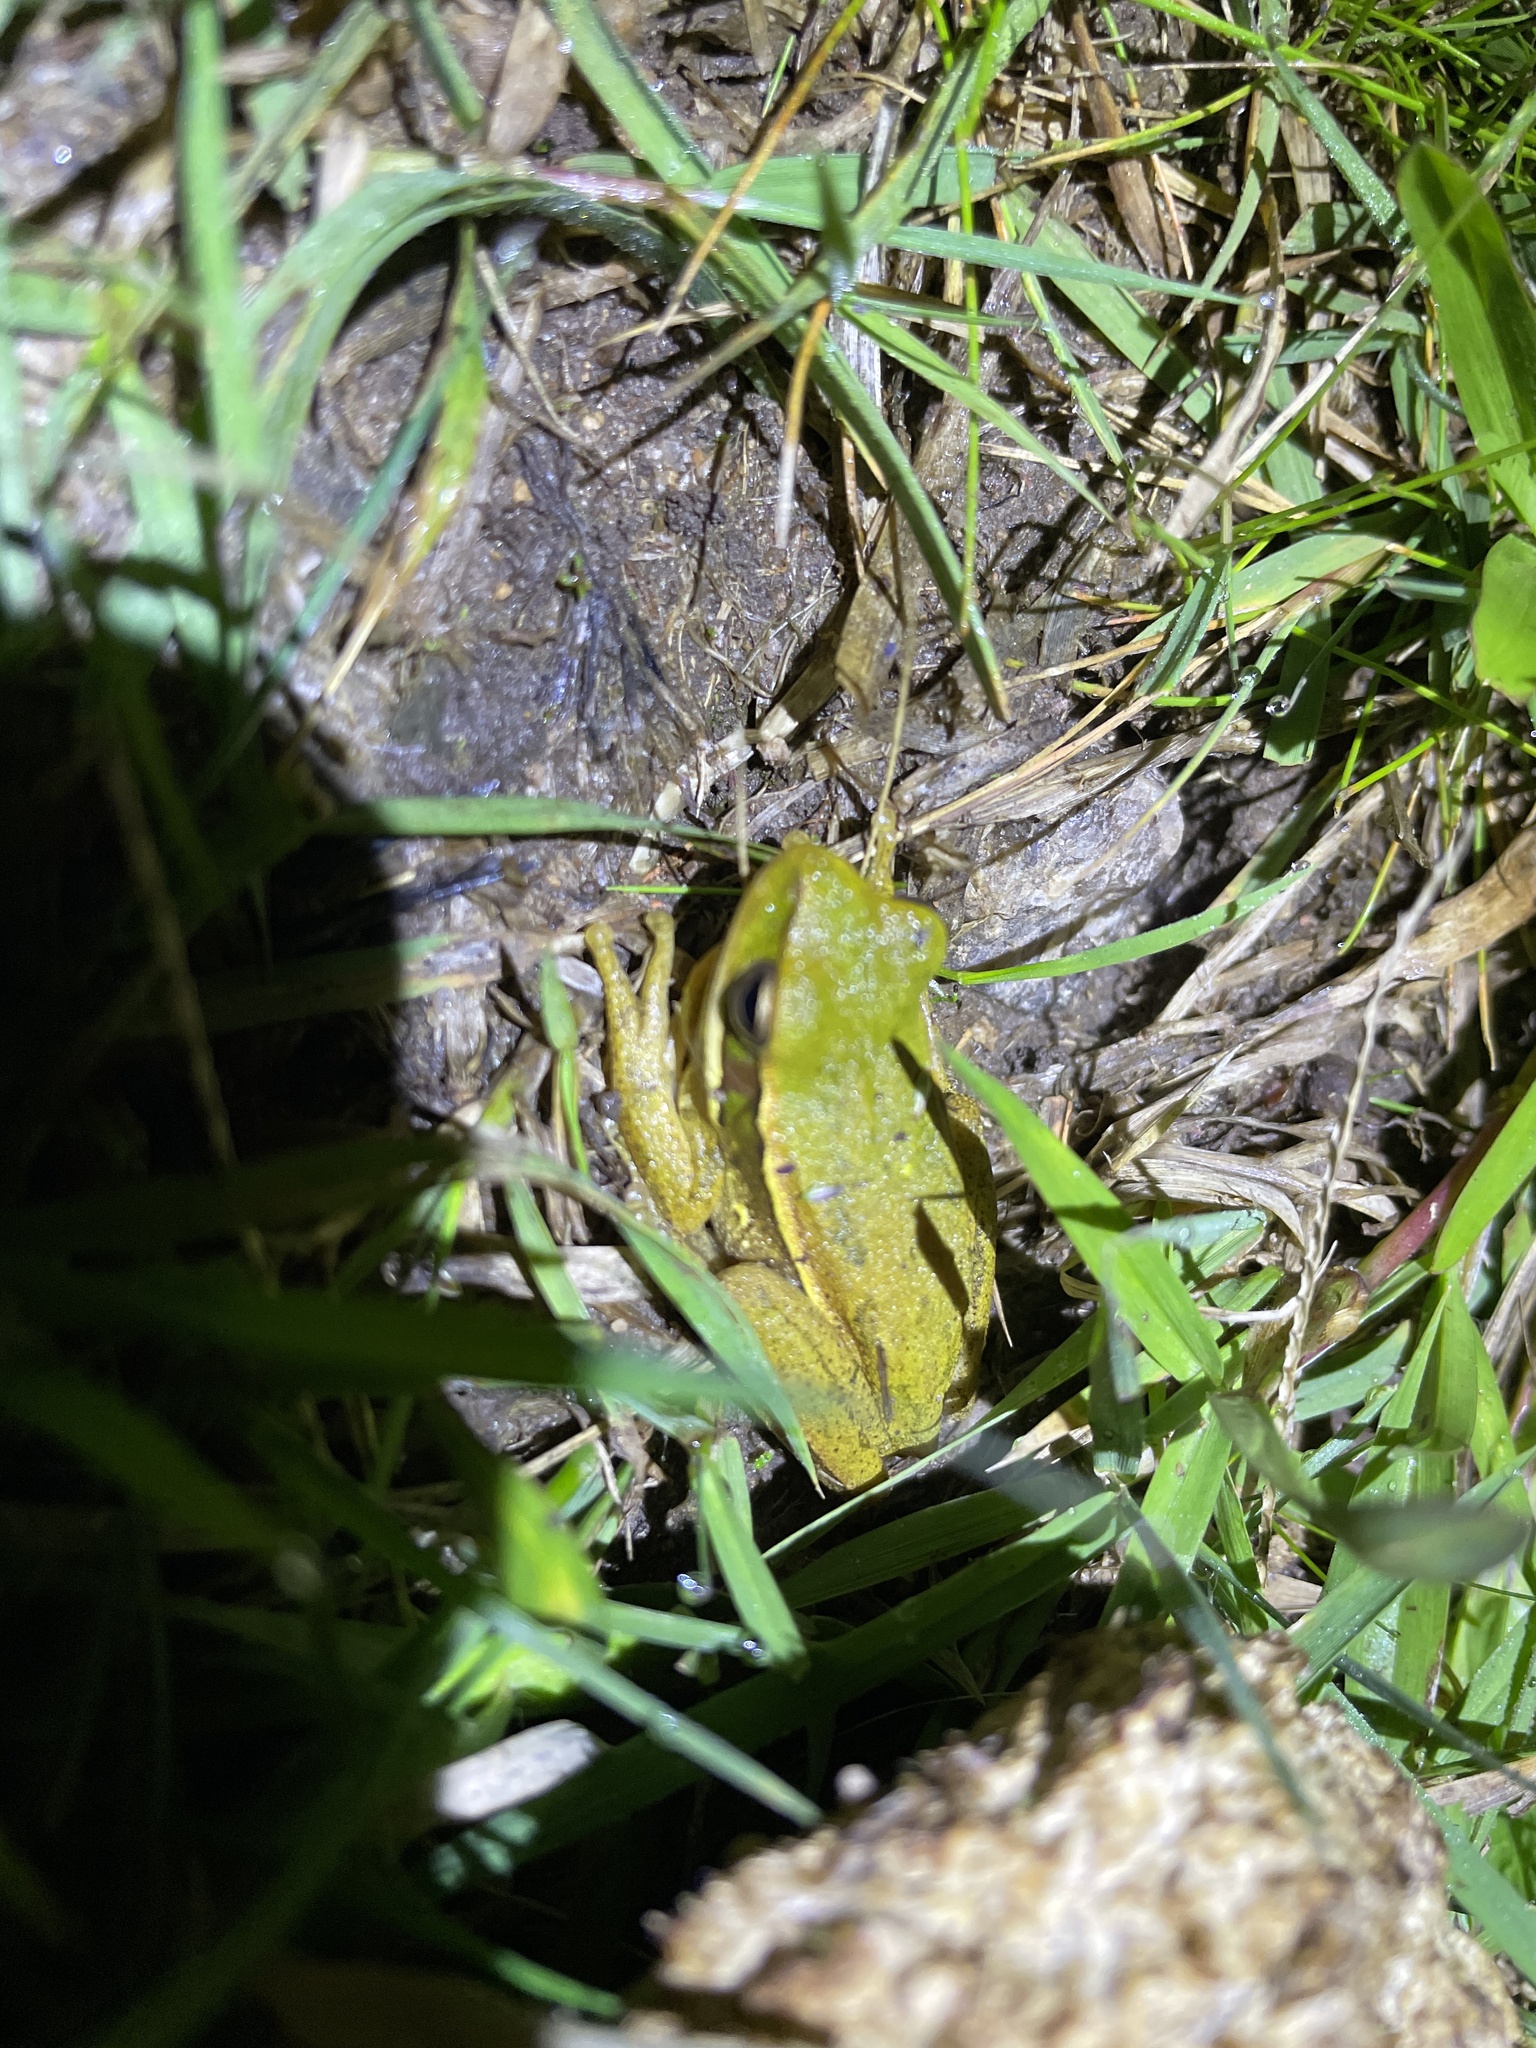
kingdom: Animalia
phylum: Chordata
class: Amphibia
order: Anura
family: Hylidae
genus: Boana
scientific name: Boana pulchella
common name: Montevideo treefrog
